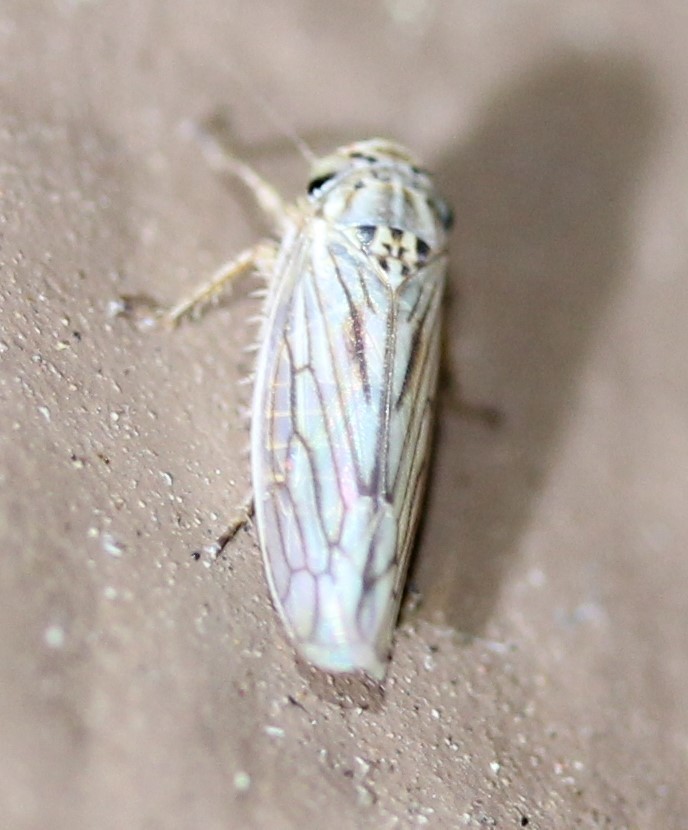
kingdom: Animalia
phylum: Arthropoda
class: Insecta
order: Hemiptera
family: Cicadellidae
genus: Exitianus
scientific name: Exitianus exitiosus
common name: Gray lawn leafhopper
